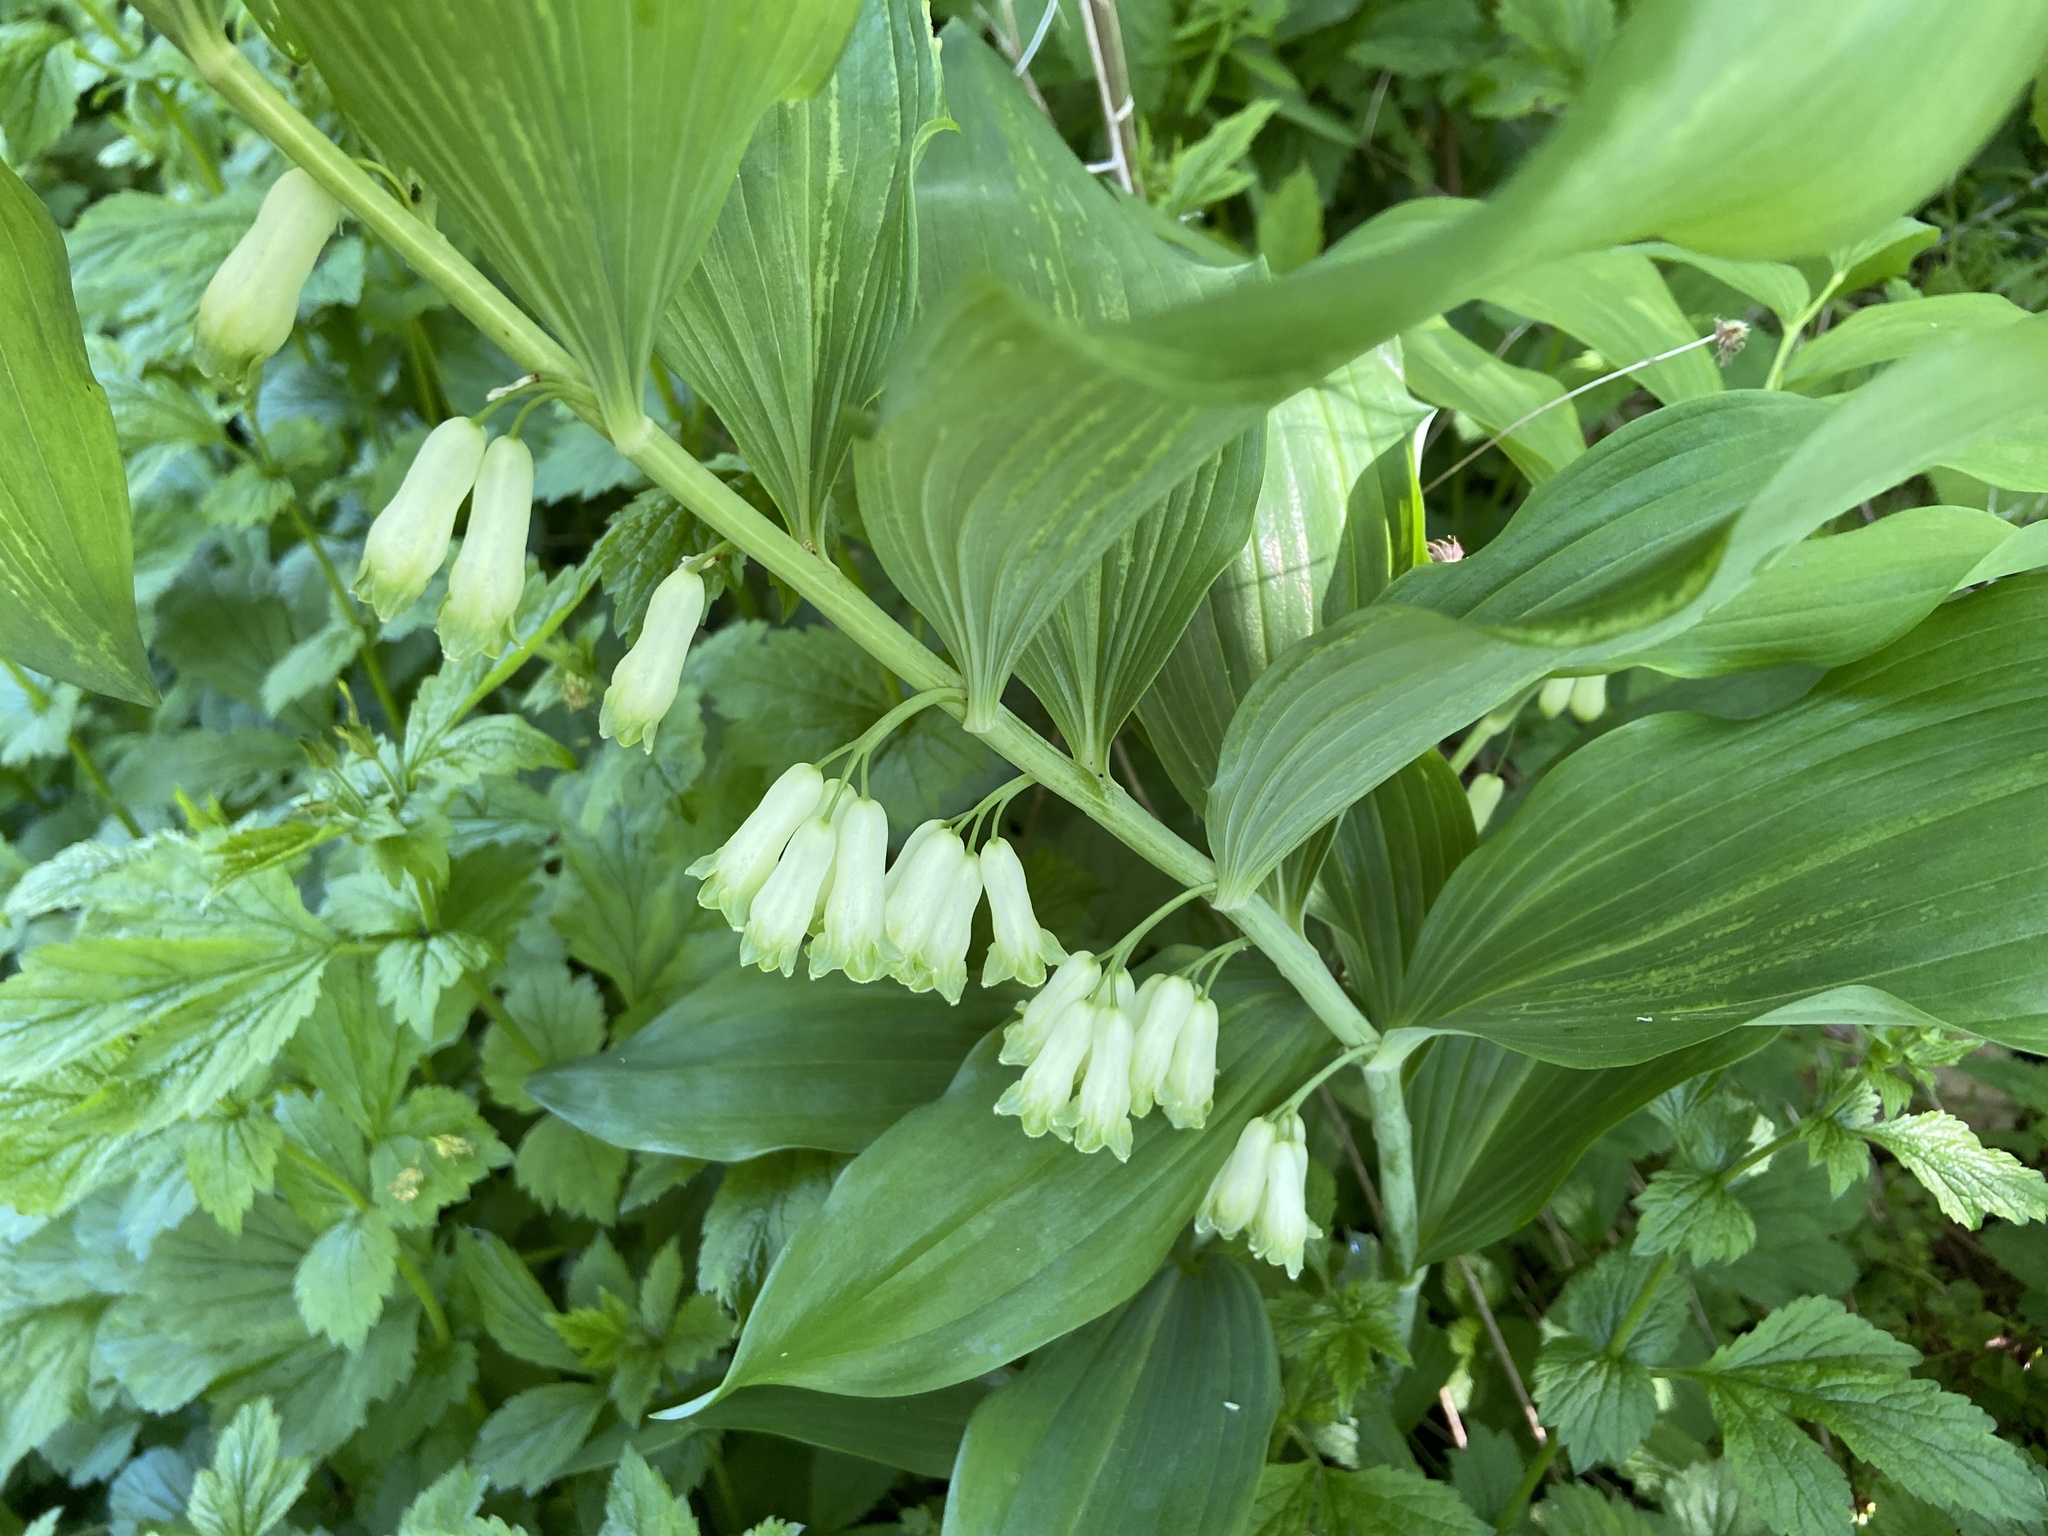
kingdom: Plantae
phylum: Tracheophyta
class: Liliopsida
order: Asparagales
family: Asparagaceae
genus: Polygonatum
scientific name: Polygonatum multiflorum
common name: Solomon's-seal
